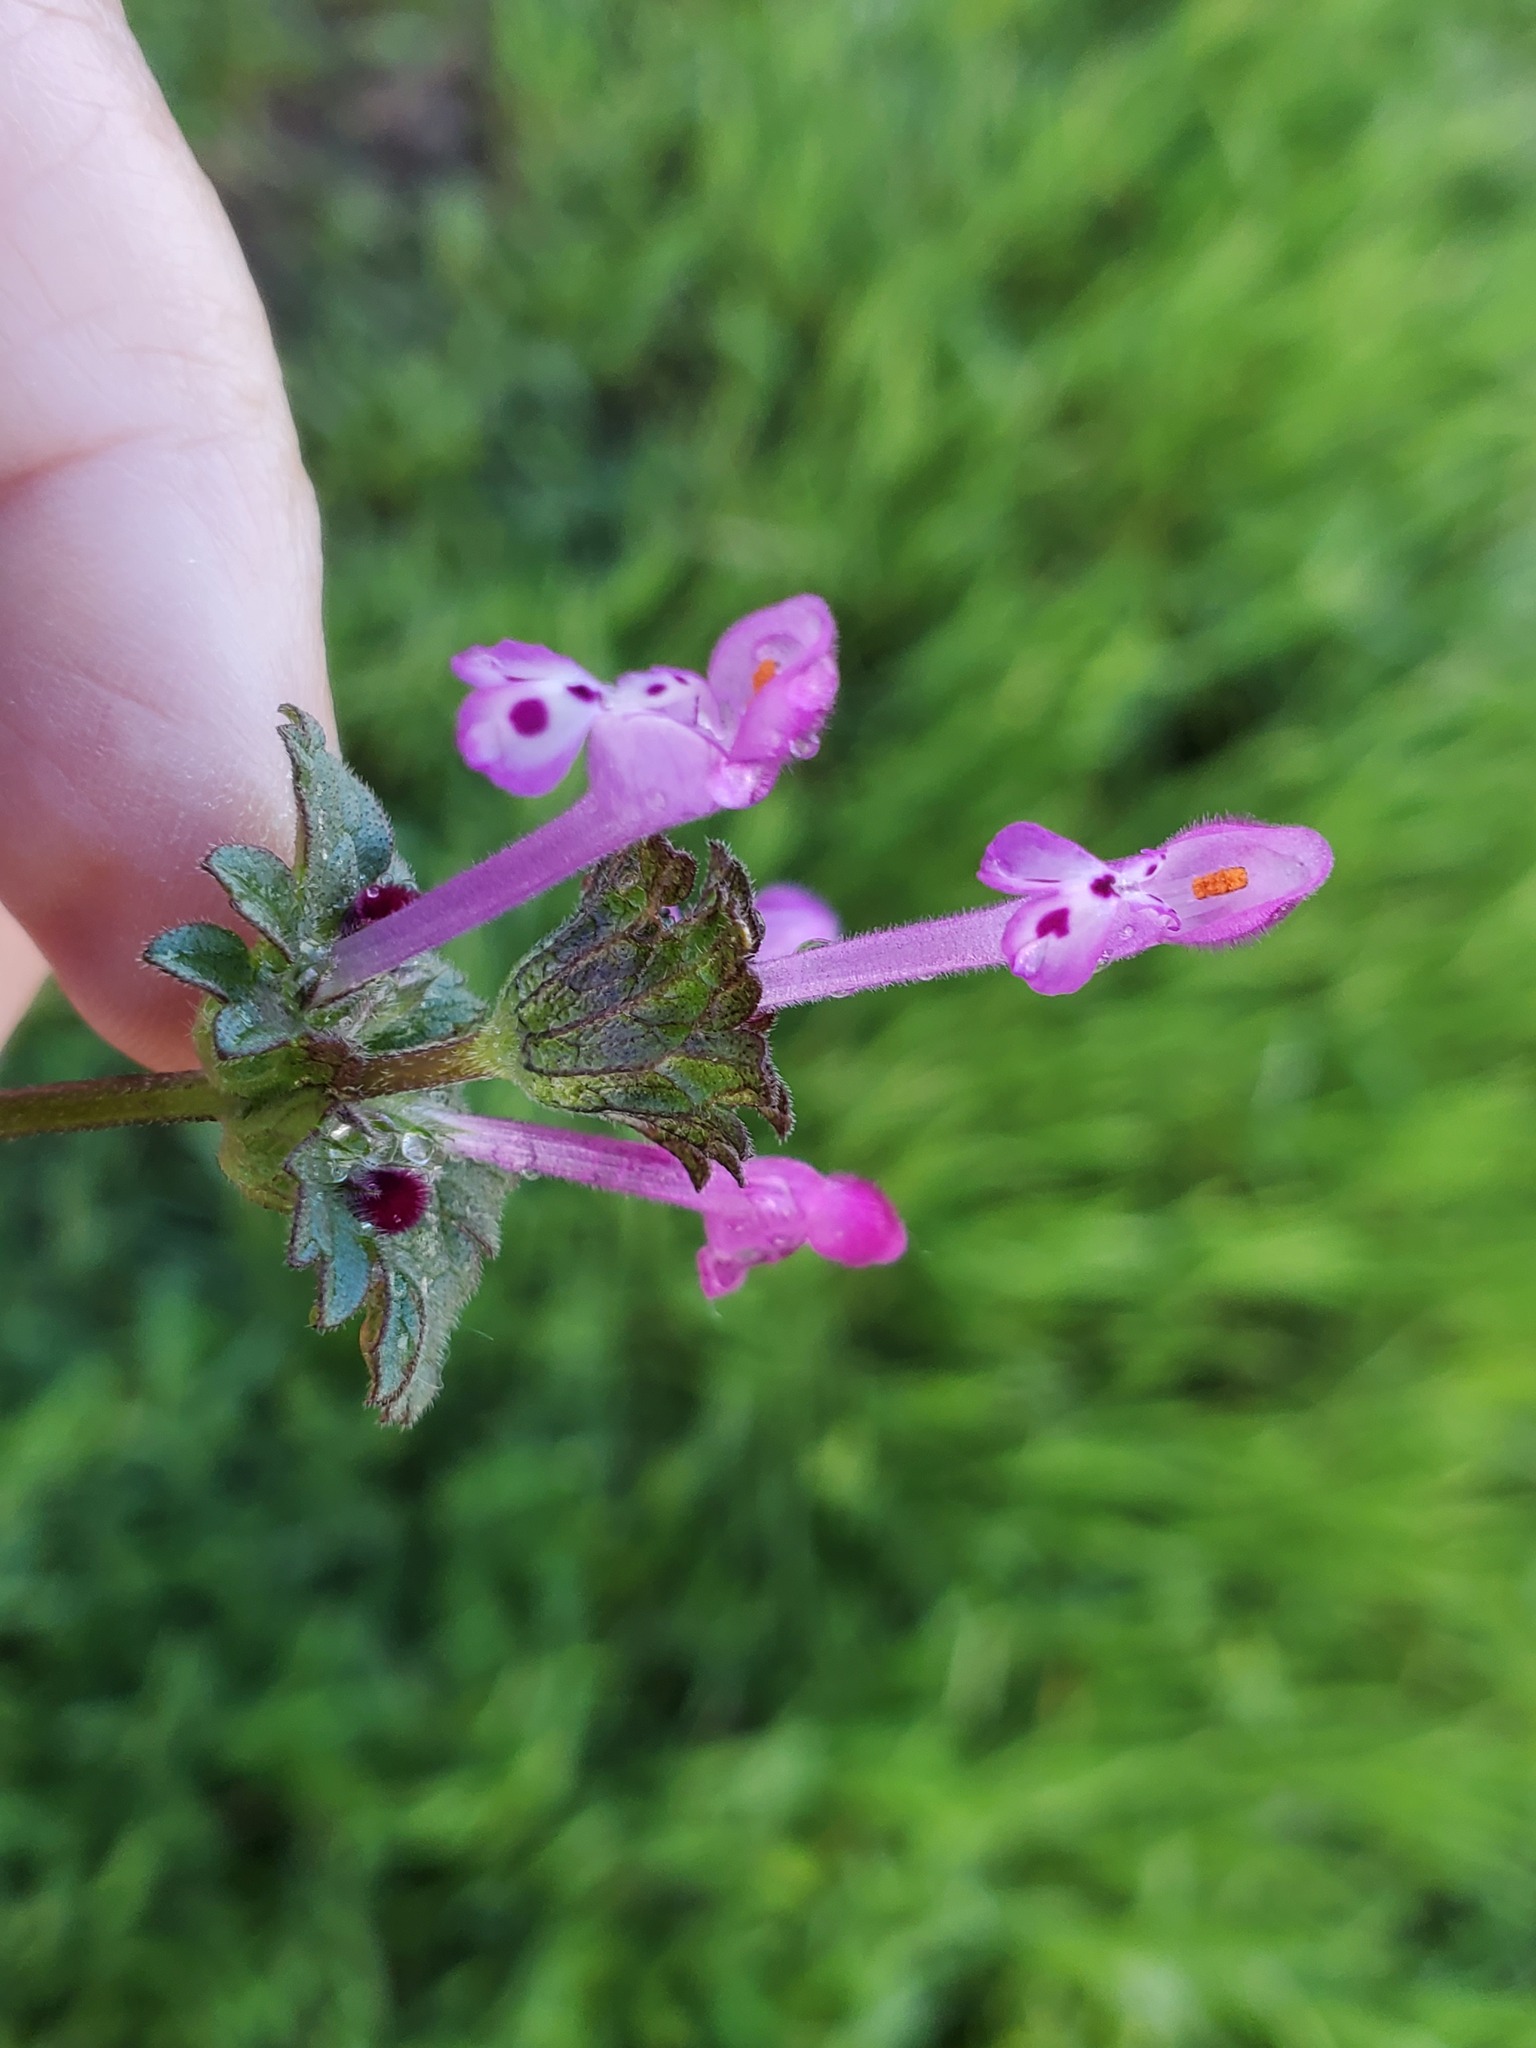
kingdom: Plantae
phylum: Tracheophyta
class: Magnoliopsida
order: Lamiales
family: Lamiaceae
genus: Lamium
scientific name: Lamium amplexicaule
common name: Henbit dead-nettle
